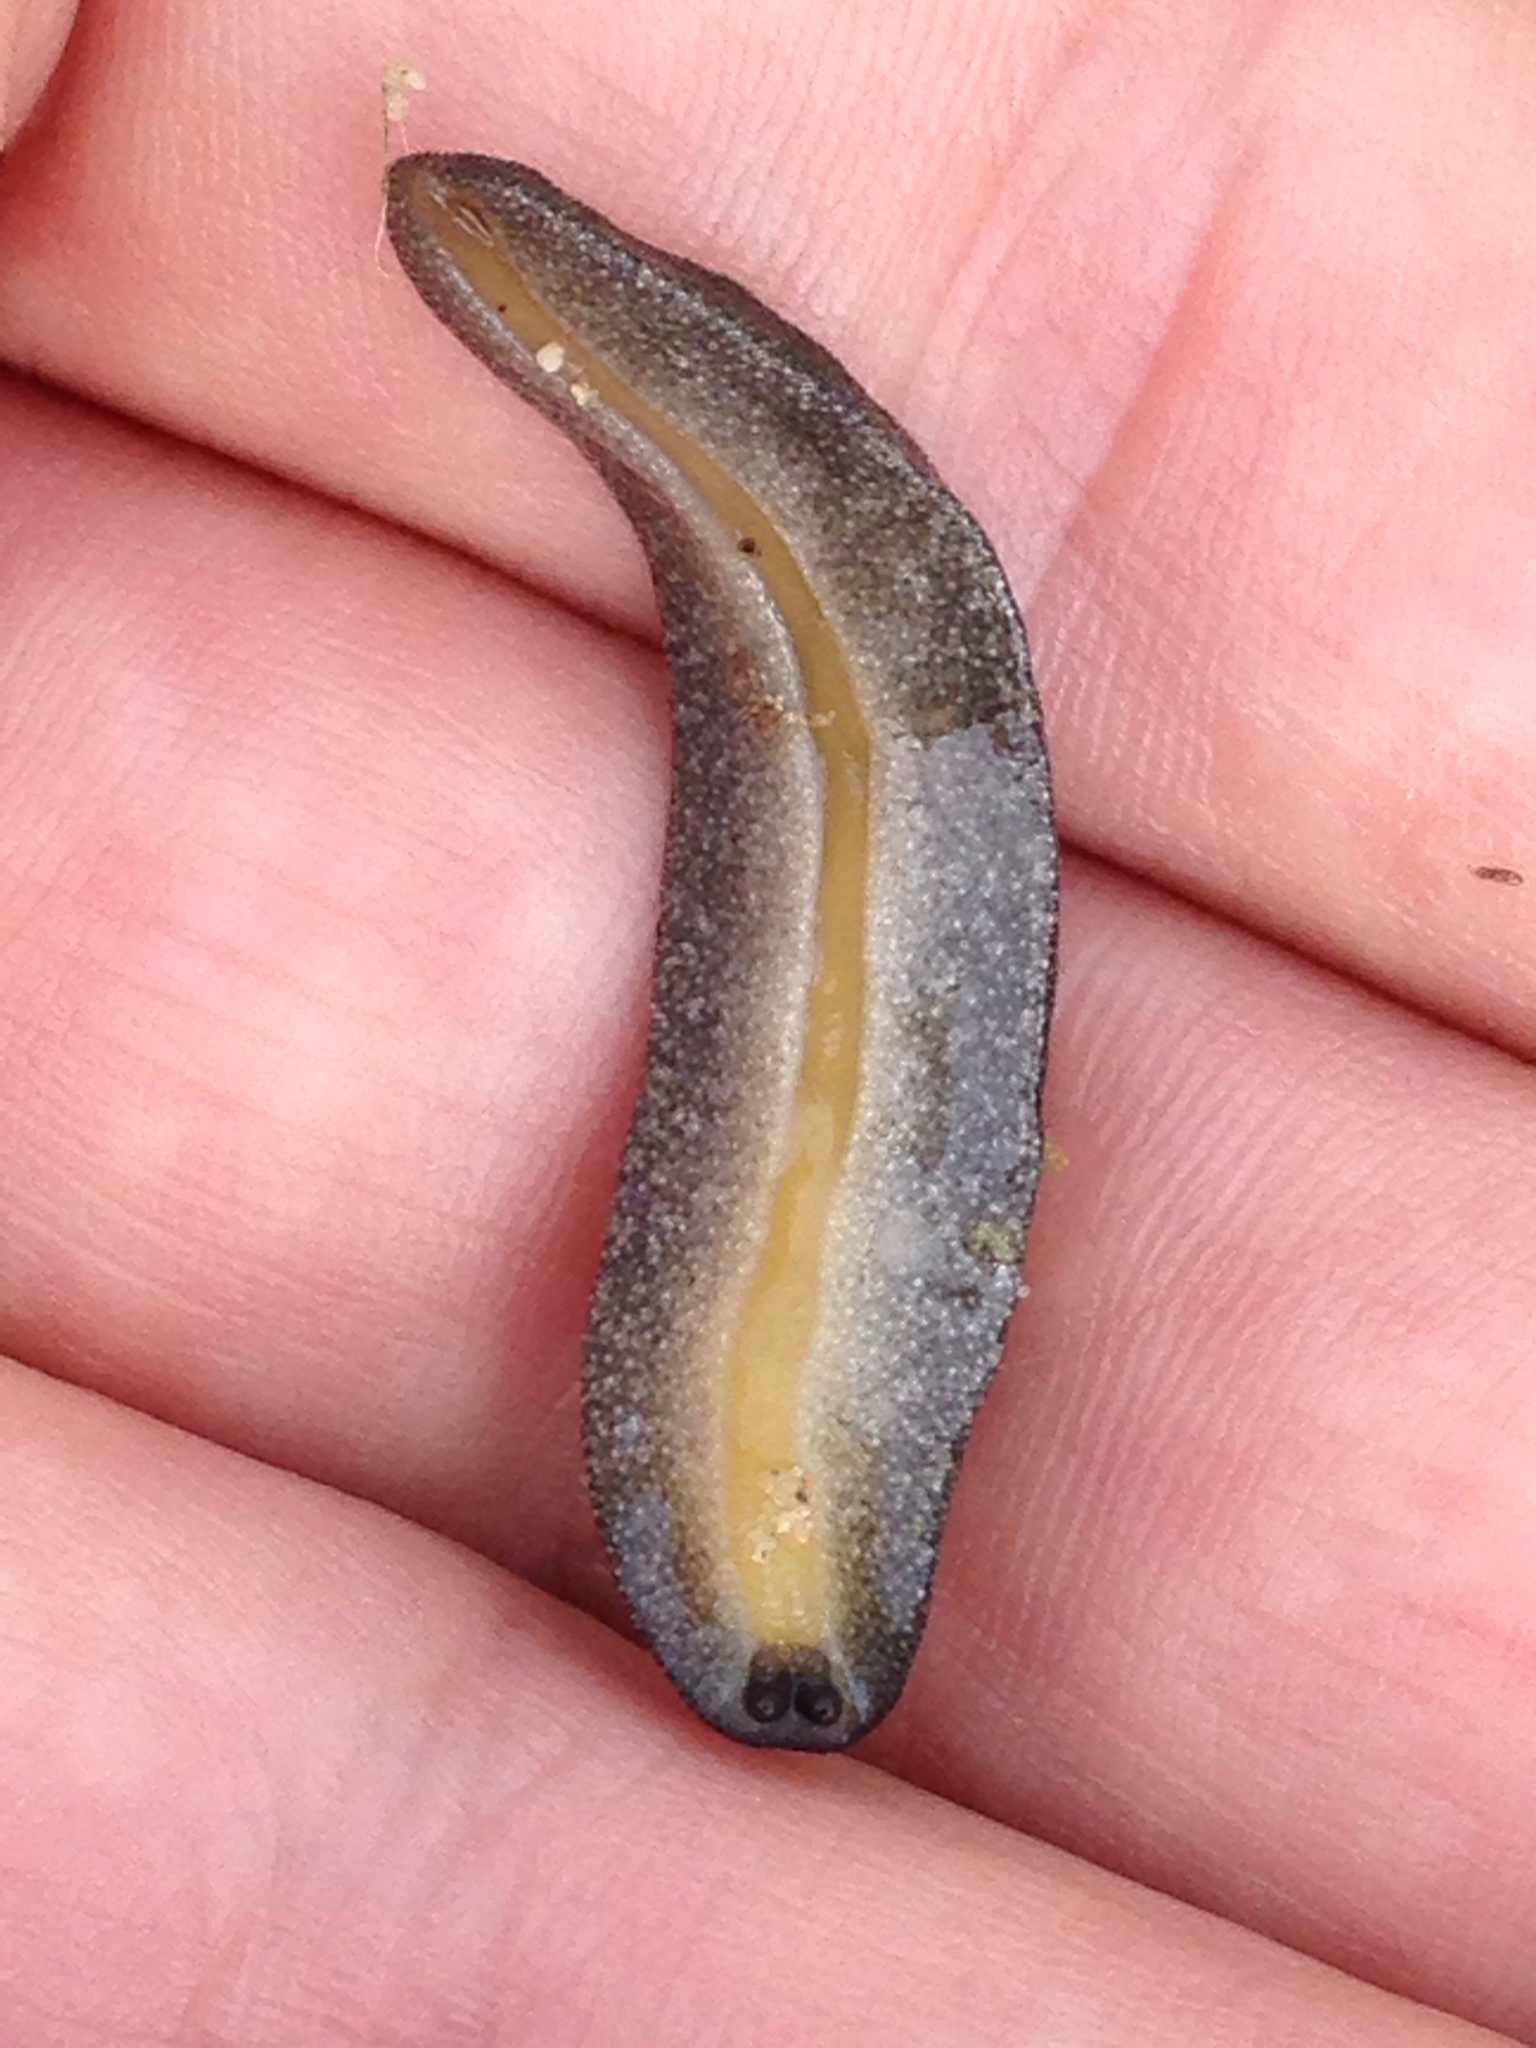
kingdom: Animalia
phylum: Mollusca
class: Gastropoda
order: Systellommatophora
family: Veronicellidae
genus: Belocaulus
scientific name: Belocaulus angustipes
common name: Black velvet leatherleaf slug
